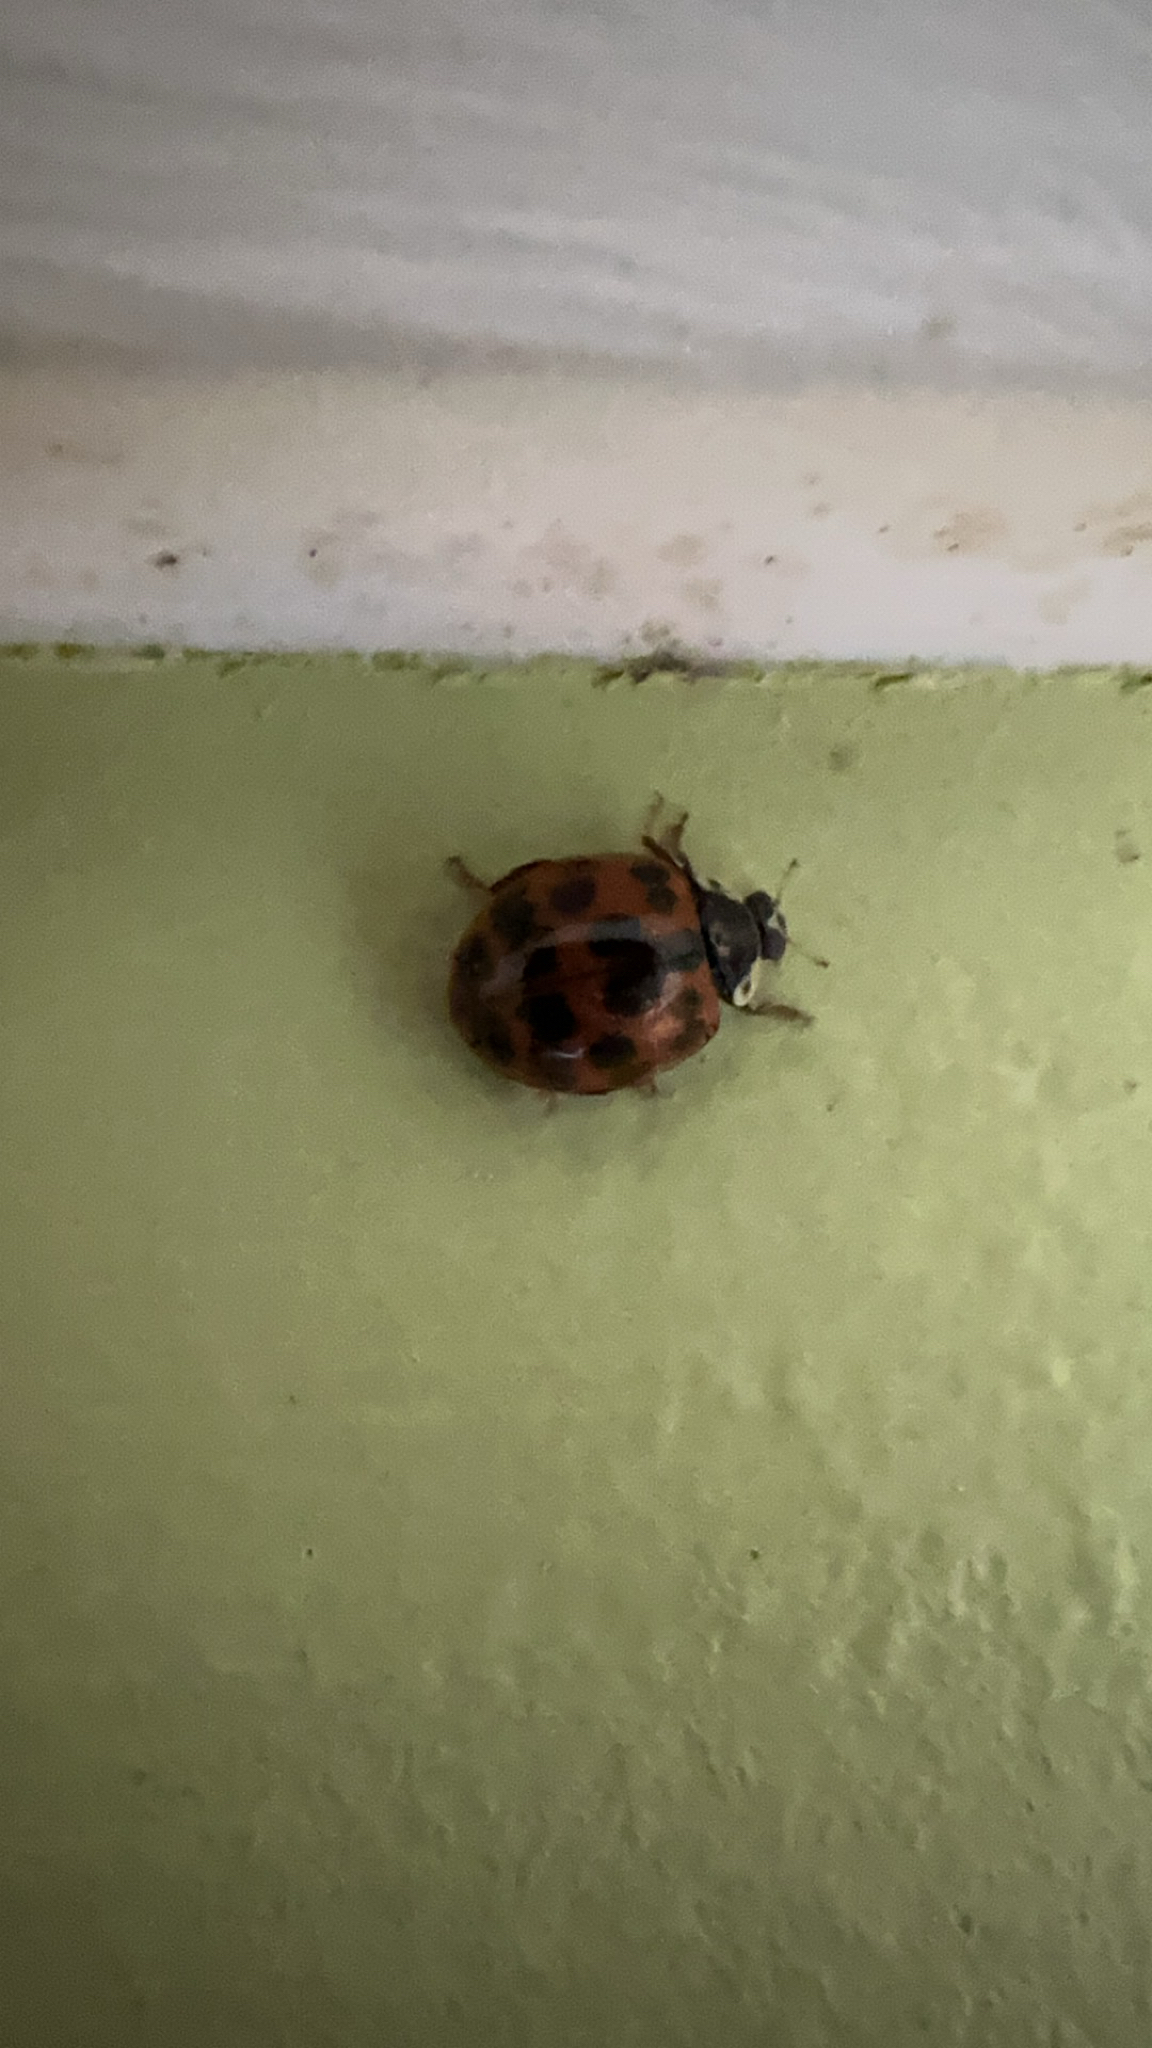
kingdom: Animalia
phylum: Arthropoda
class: Insecta
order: Coleoptera
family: Coccinellidae
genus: Harmonia
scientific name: Harmonia axyridis
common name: Harlequin ladybird
